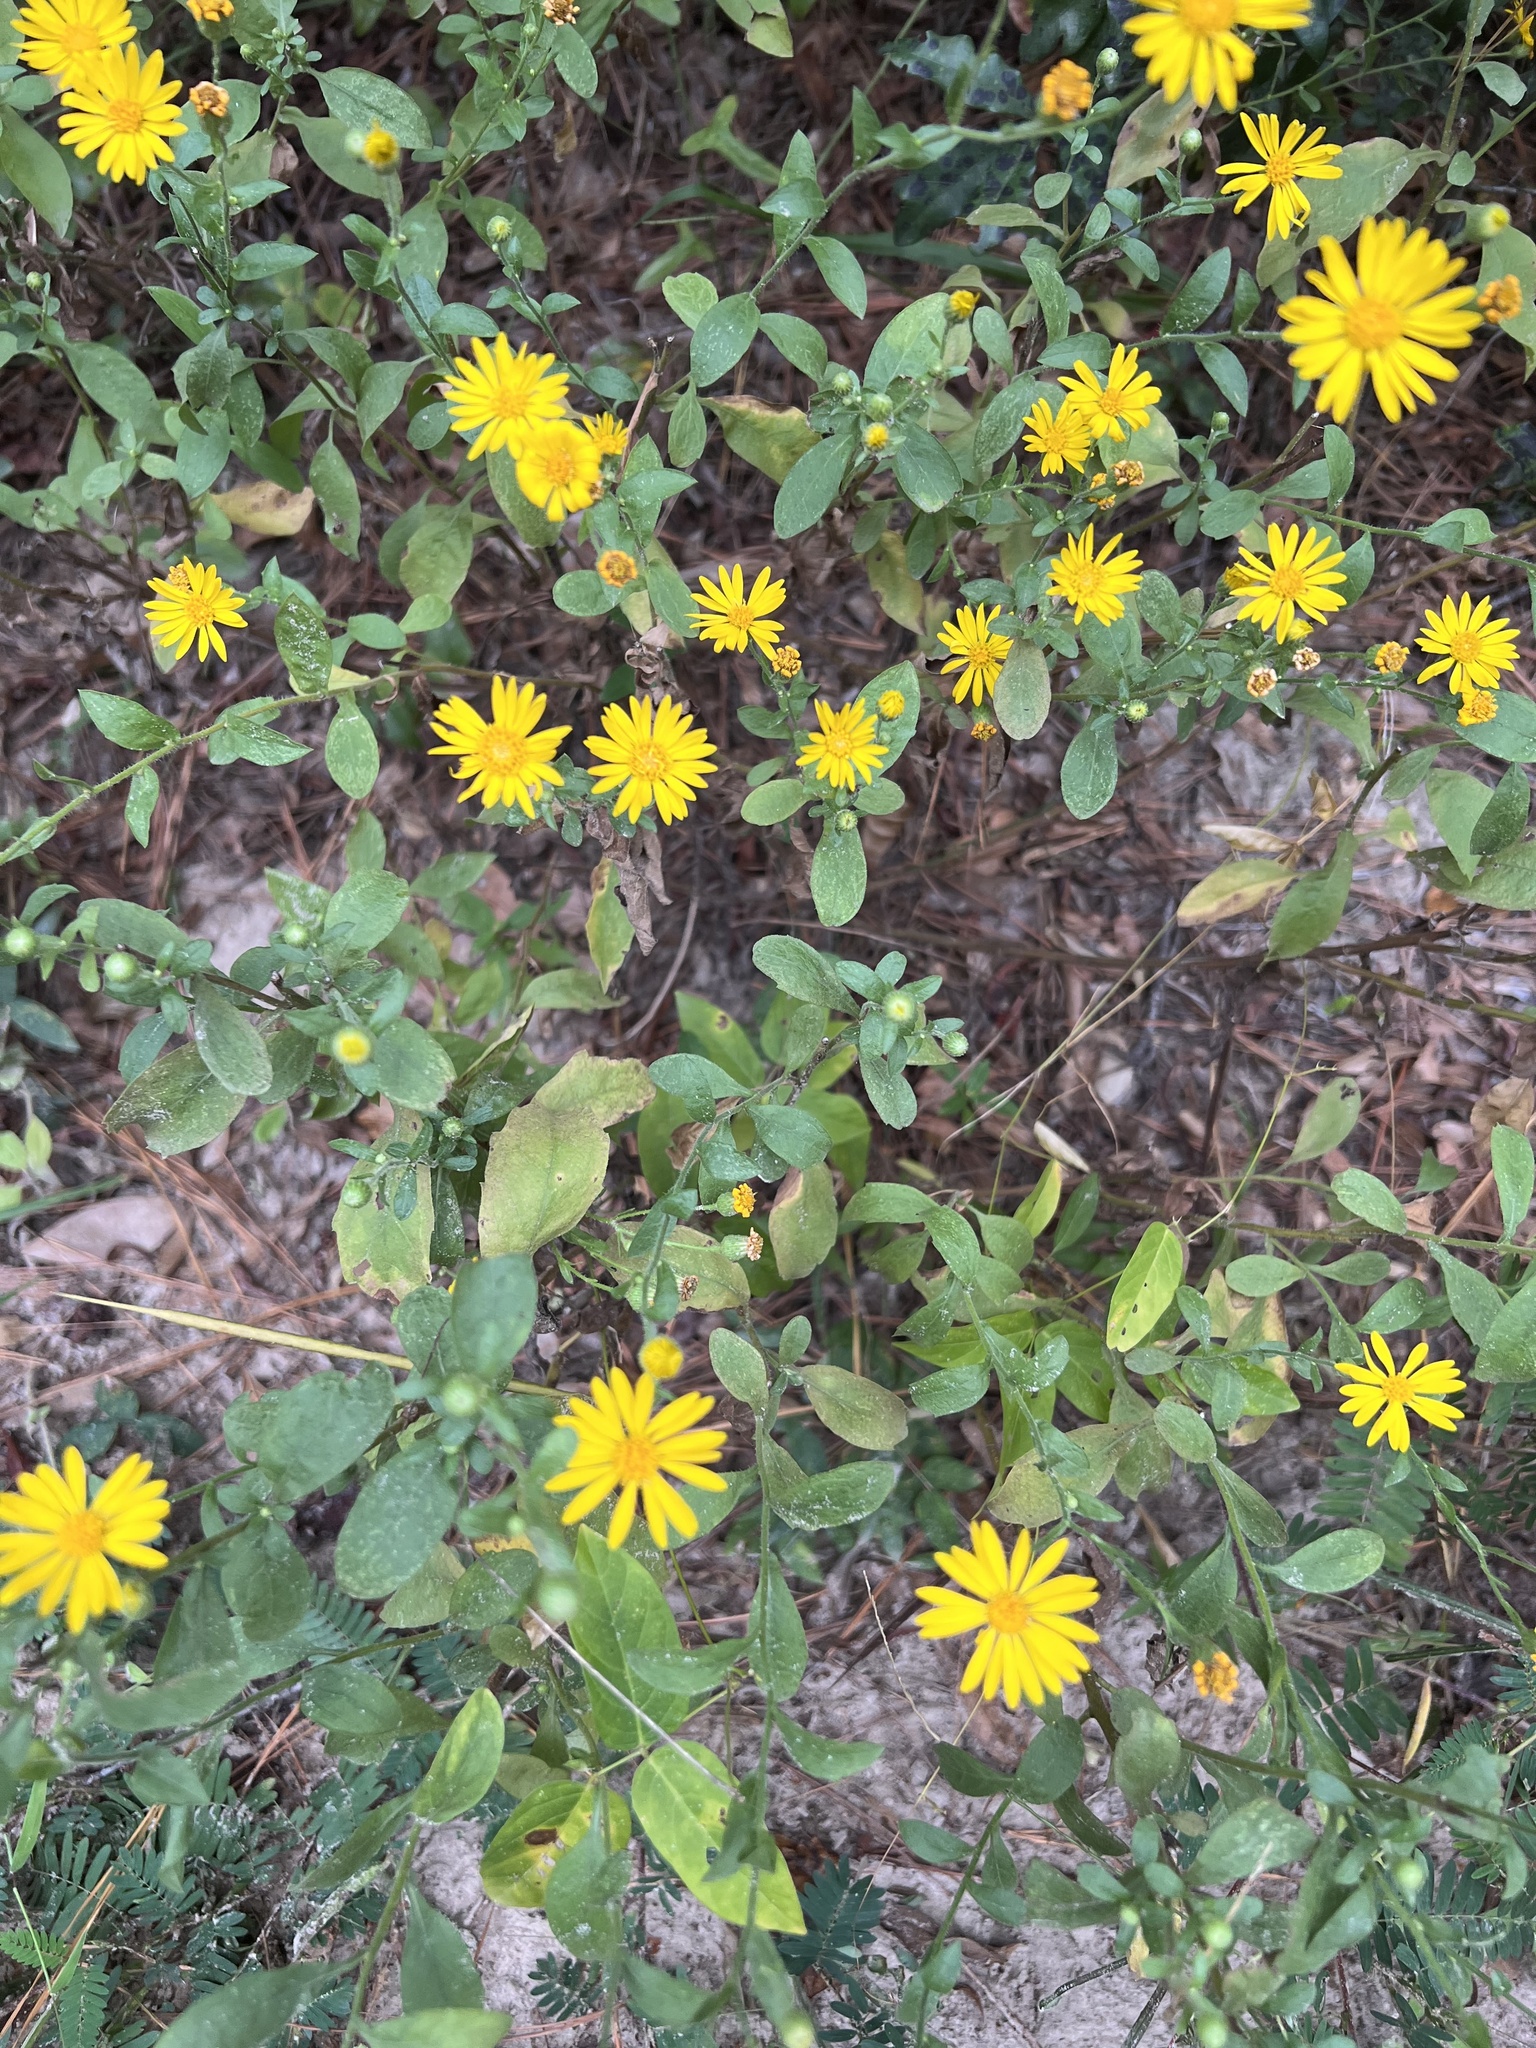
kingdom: Plantae
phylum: Tracheophyta
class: Magnoliopsida
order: Asterales
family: Asteraceae
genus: Heterotheca
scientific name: Heterotheca subaxillaris
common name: Camphorweed
